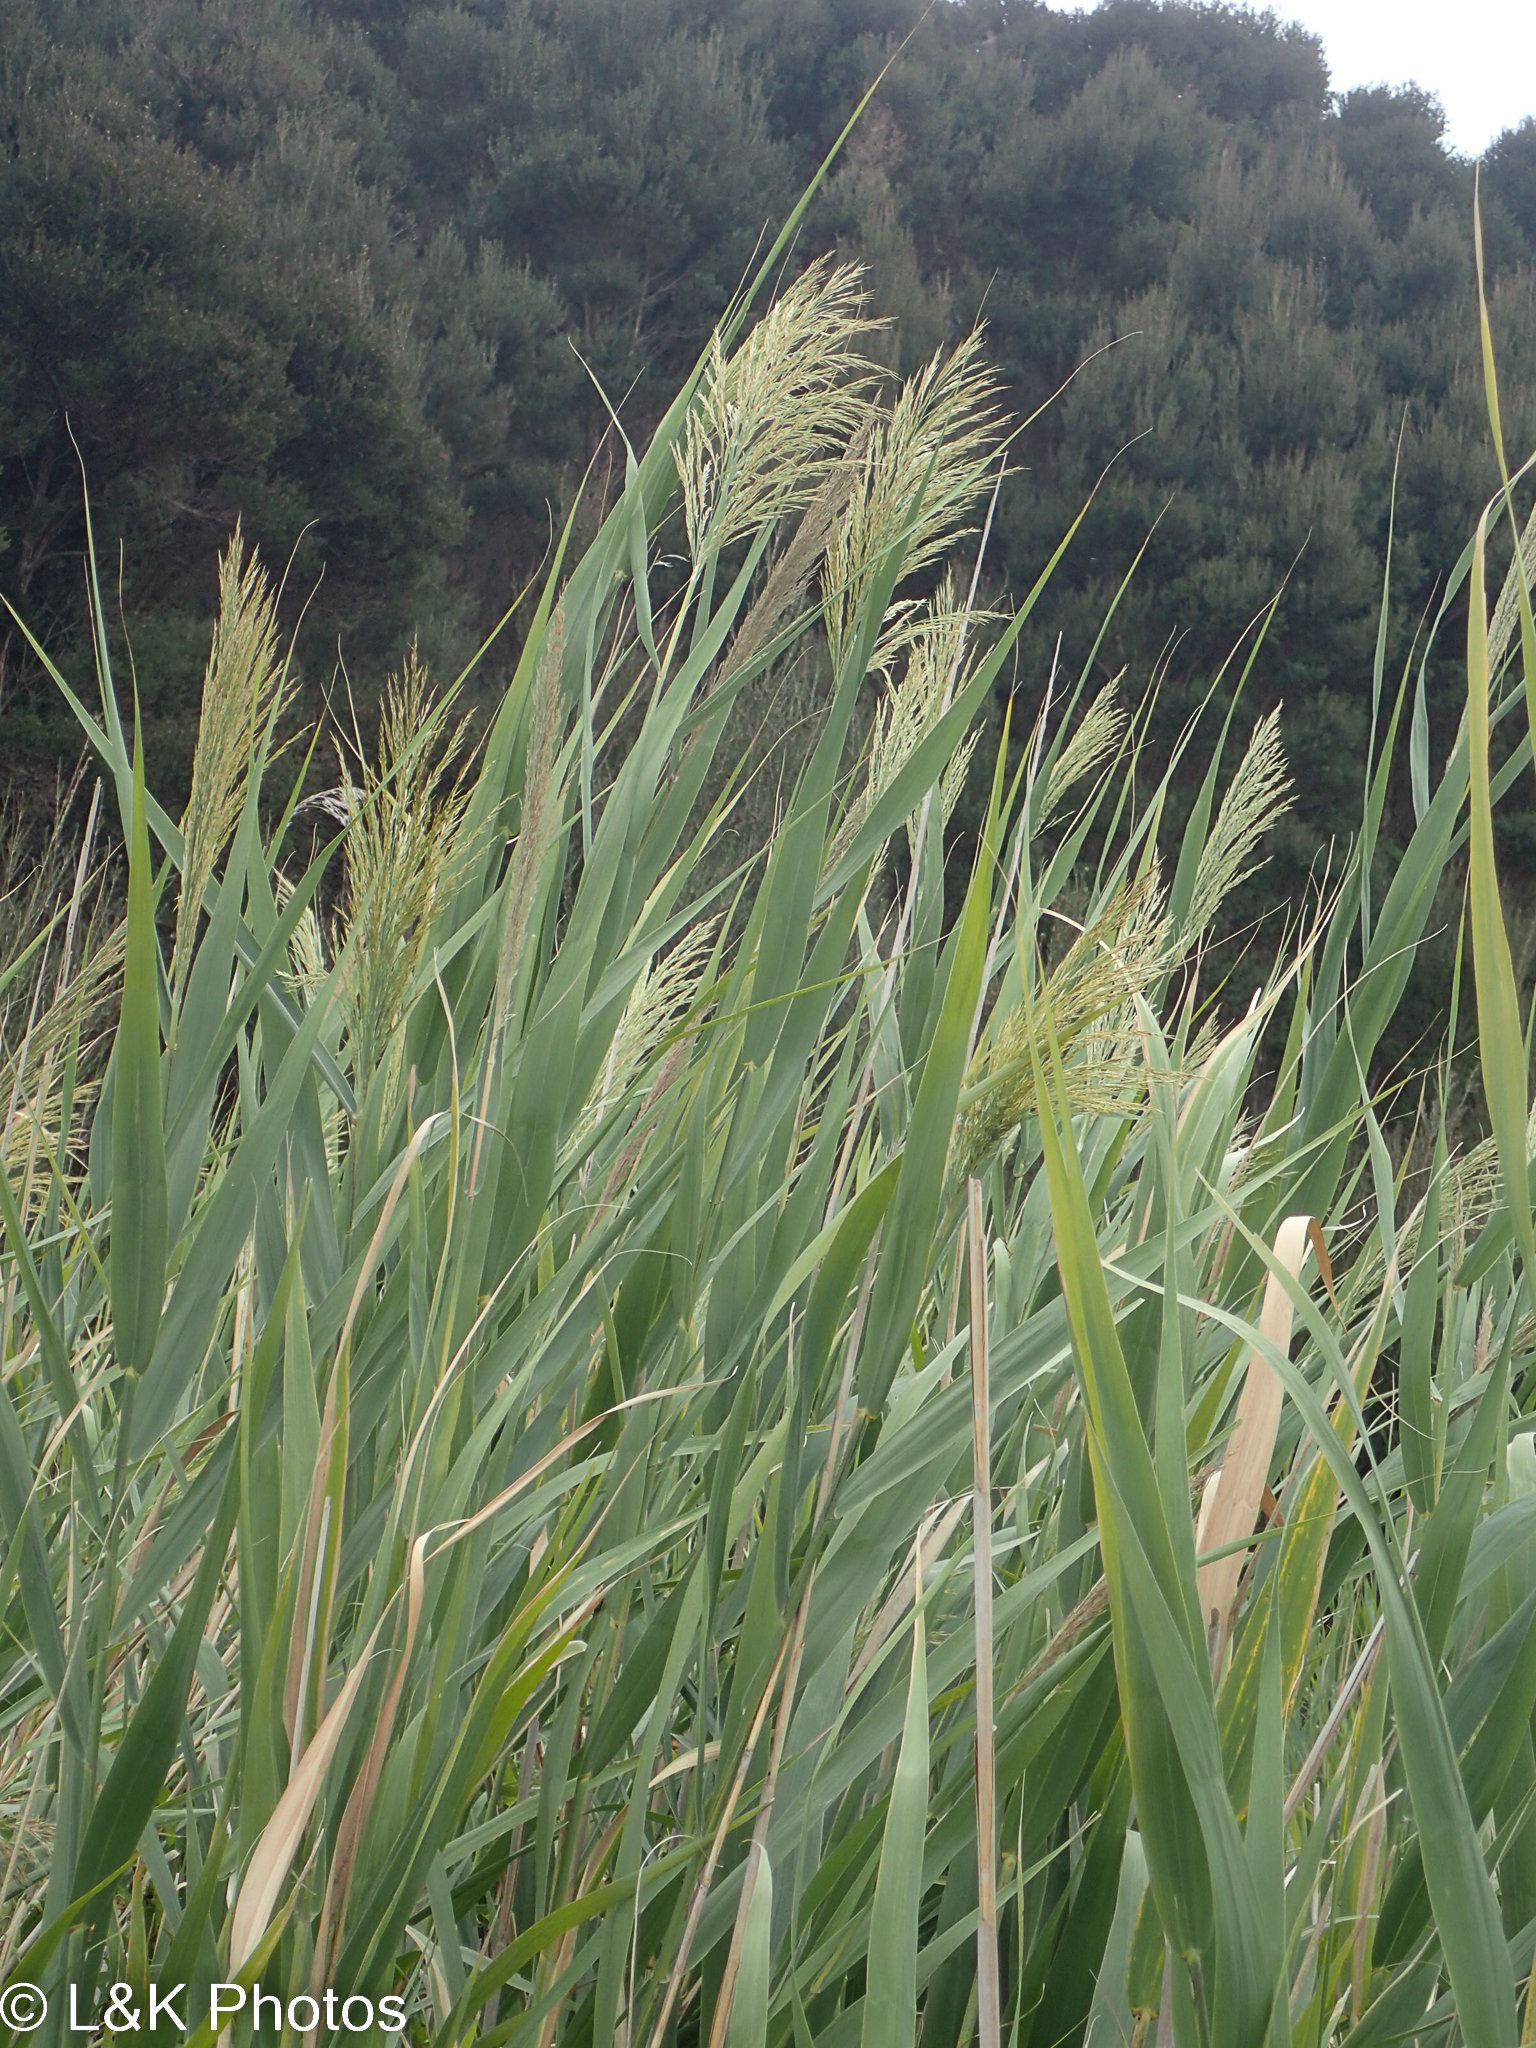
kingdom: Plantae
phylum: Tracheophyta
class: Liliopsida
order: Poales
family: Poaceae
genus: Phragmites
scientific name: Phragmites australis
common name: Common reed
